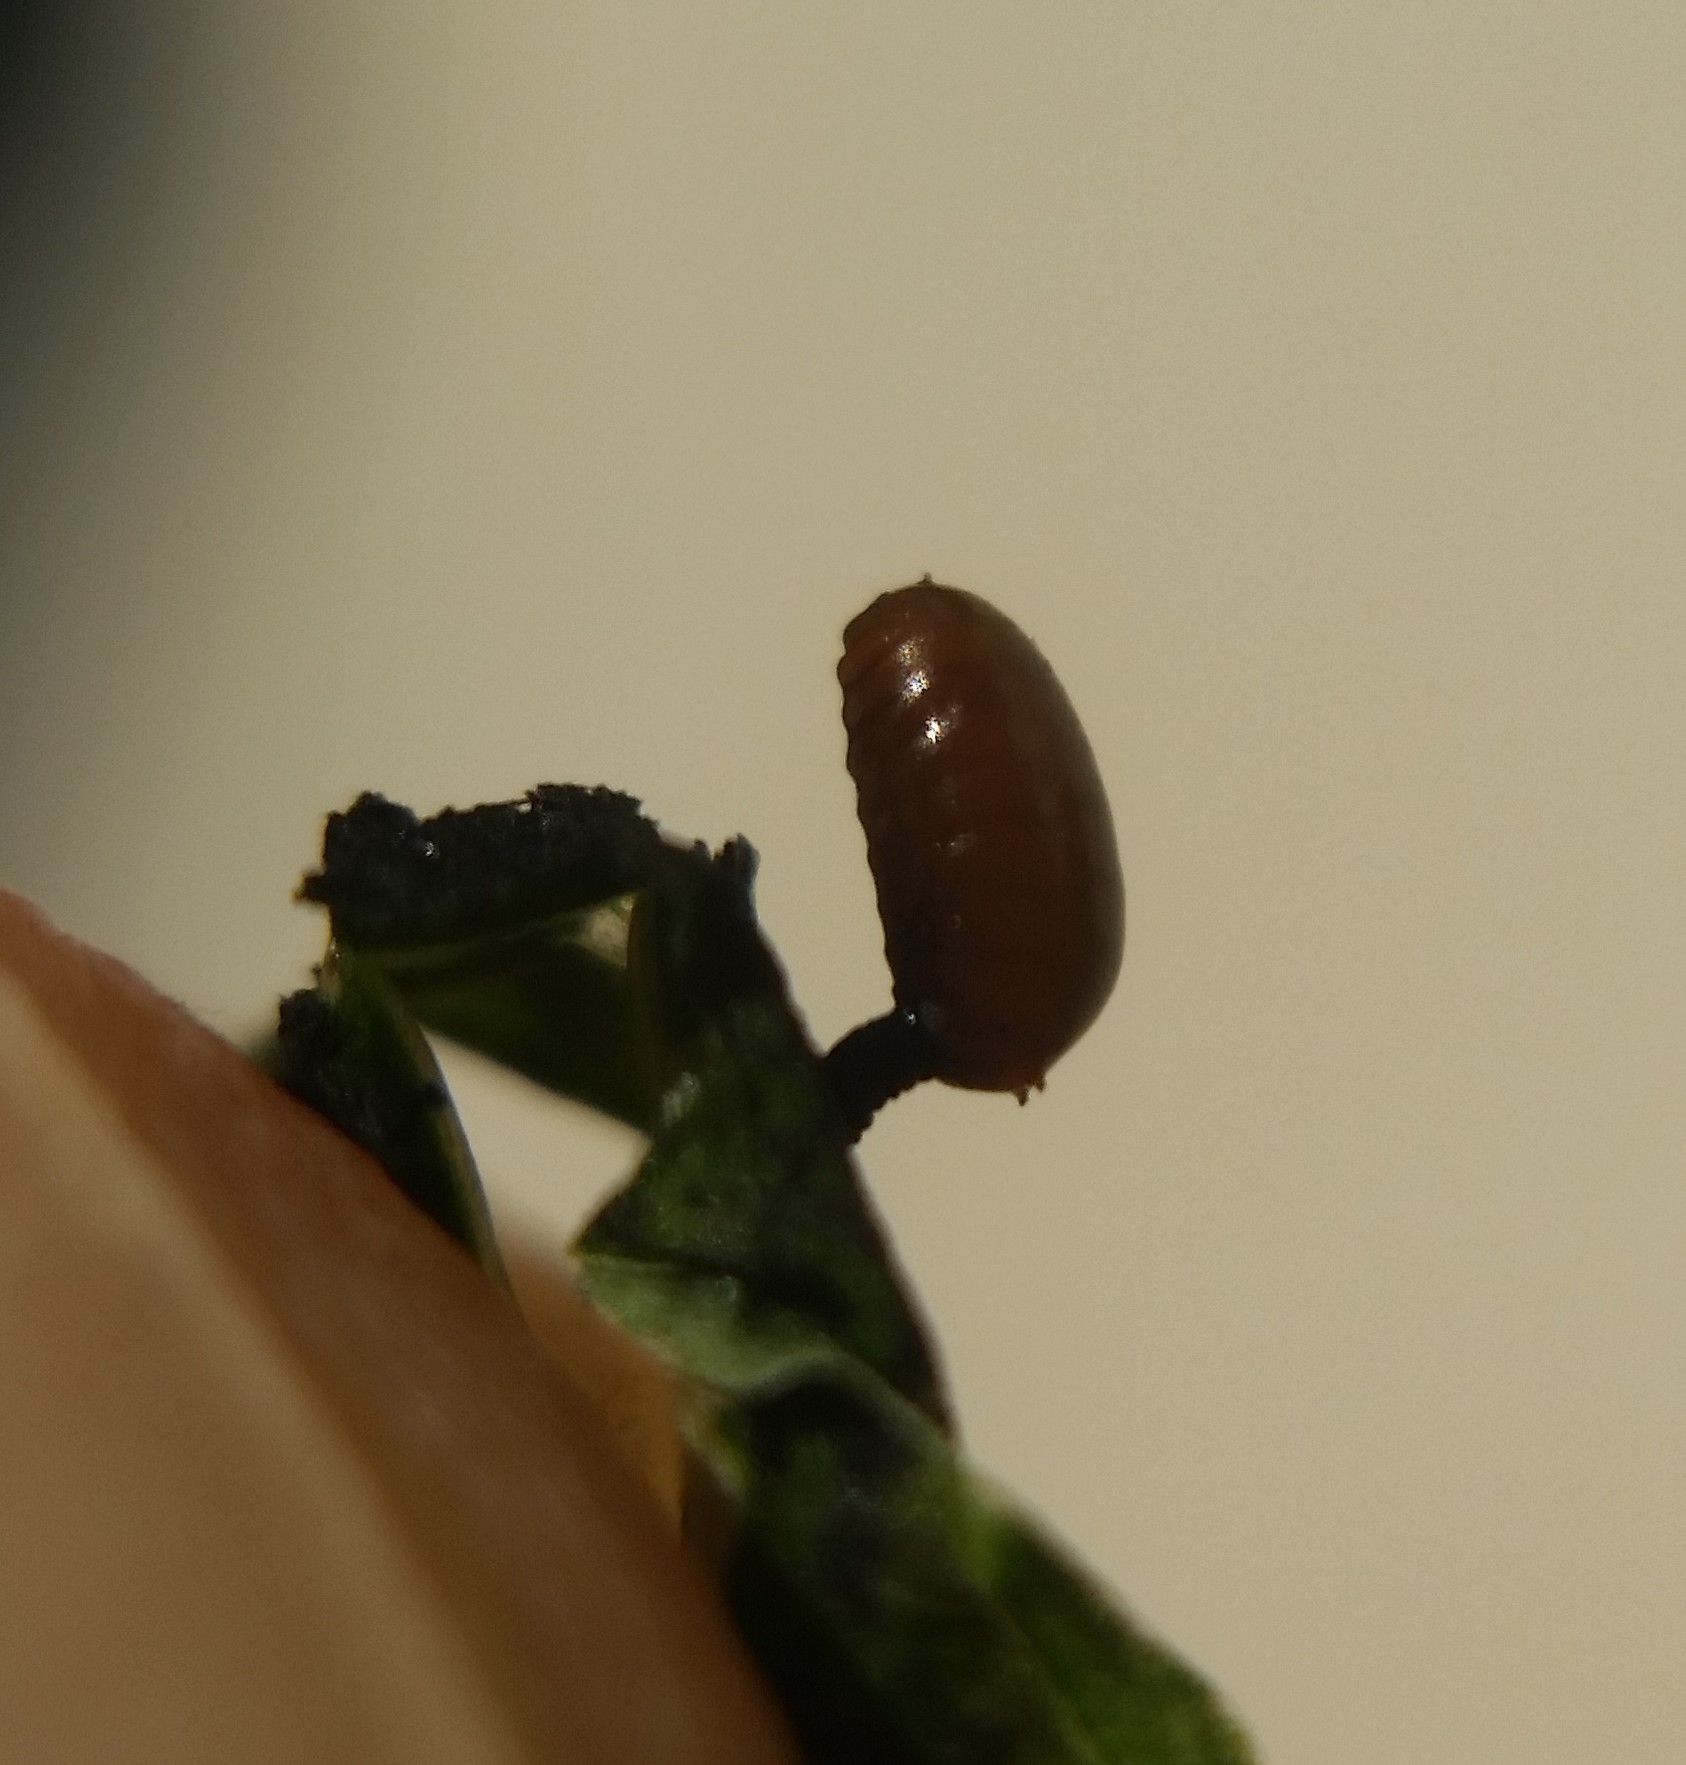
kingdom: Animalia
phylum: Arthropoda
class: Insecta
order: Diptera
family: Agromyzidae
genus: Calycomyza
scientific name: Calycomyza promissa
